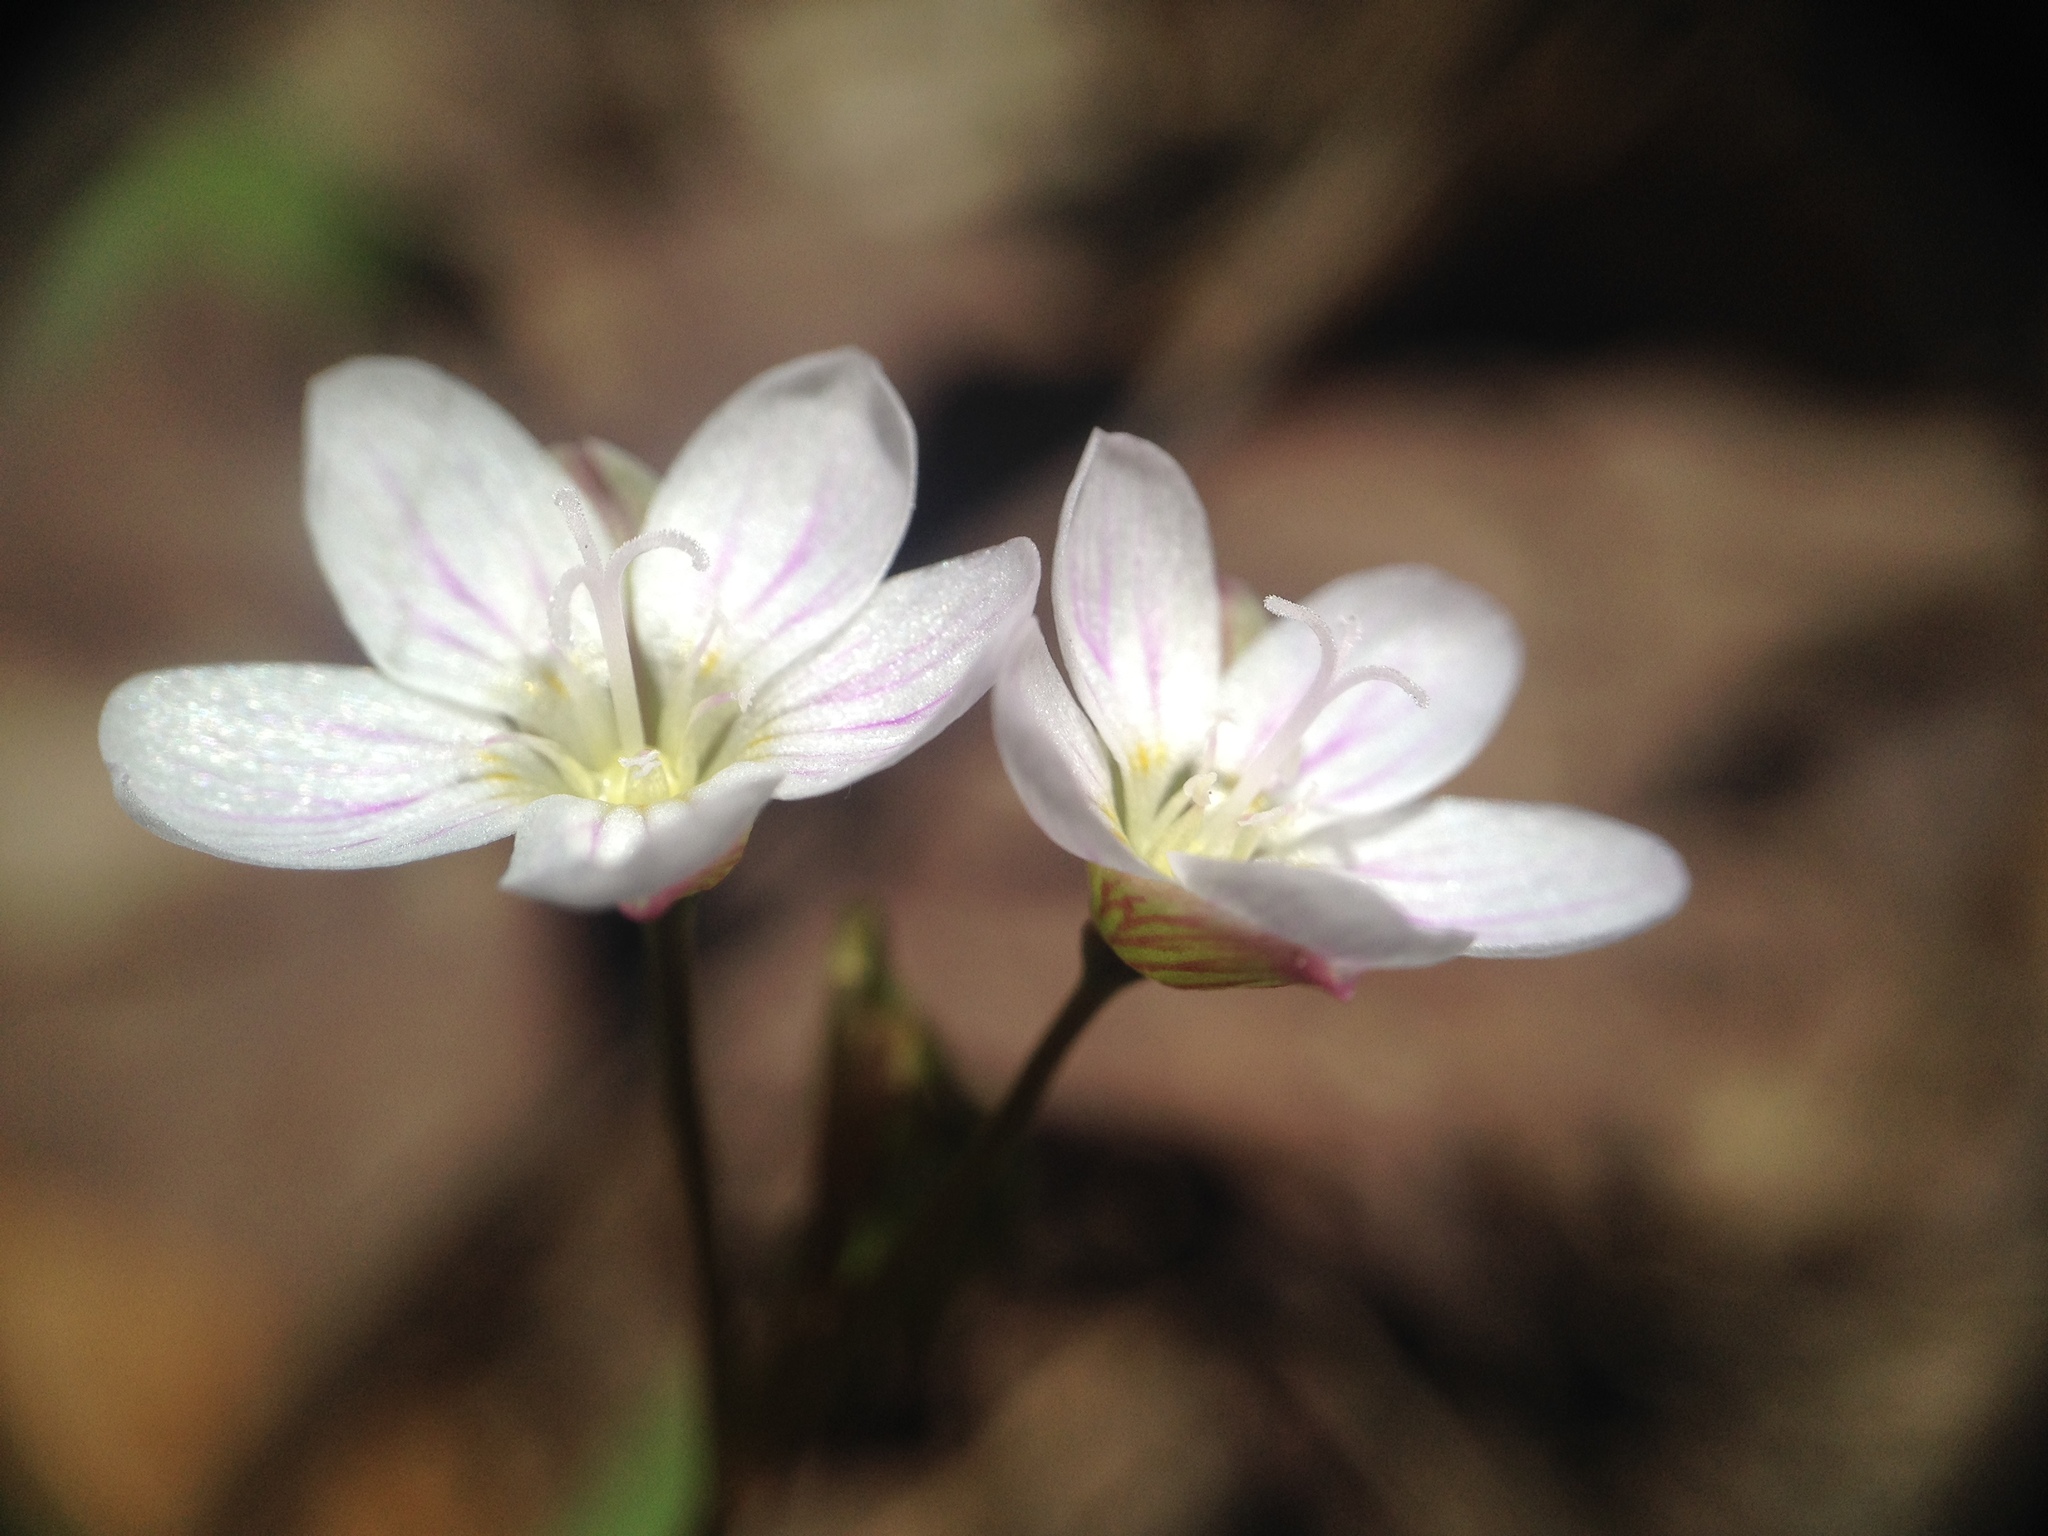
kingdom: Plantae
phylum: Tracheophyta
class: Magnoliopsida
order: Caryophyllales
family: Montiaceae
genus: Claytonia
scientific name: Claytonia caroliniana
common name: Carolina spring beauty
